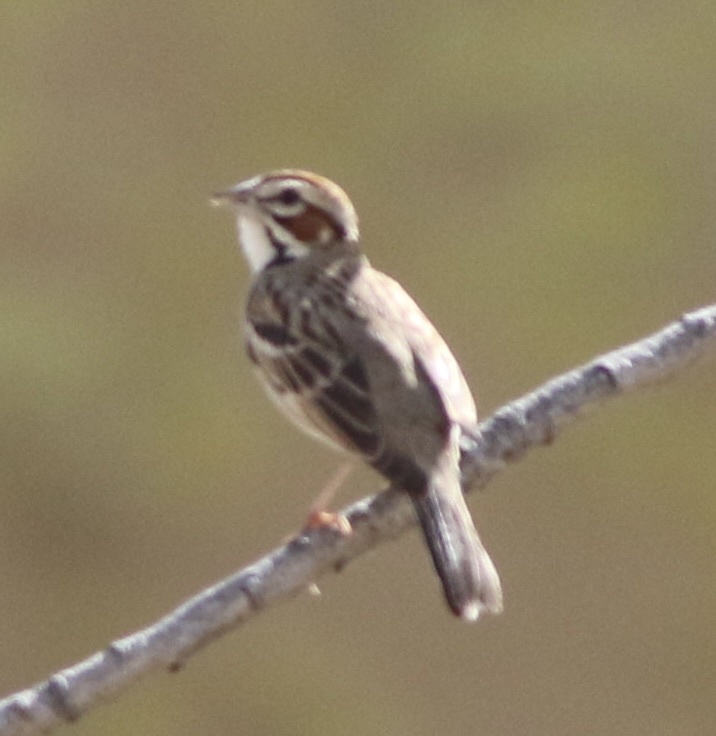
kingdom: Animalia
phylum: Chordata
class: Aves
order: Passeriformes
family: Passerellidae
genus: Chondestes
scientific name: Chondestes grammacus
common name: Lark sparrow
